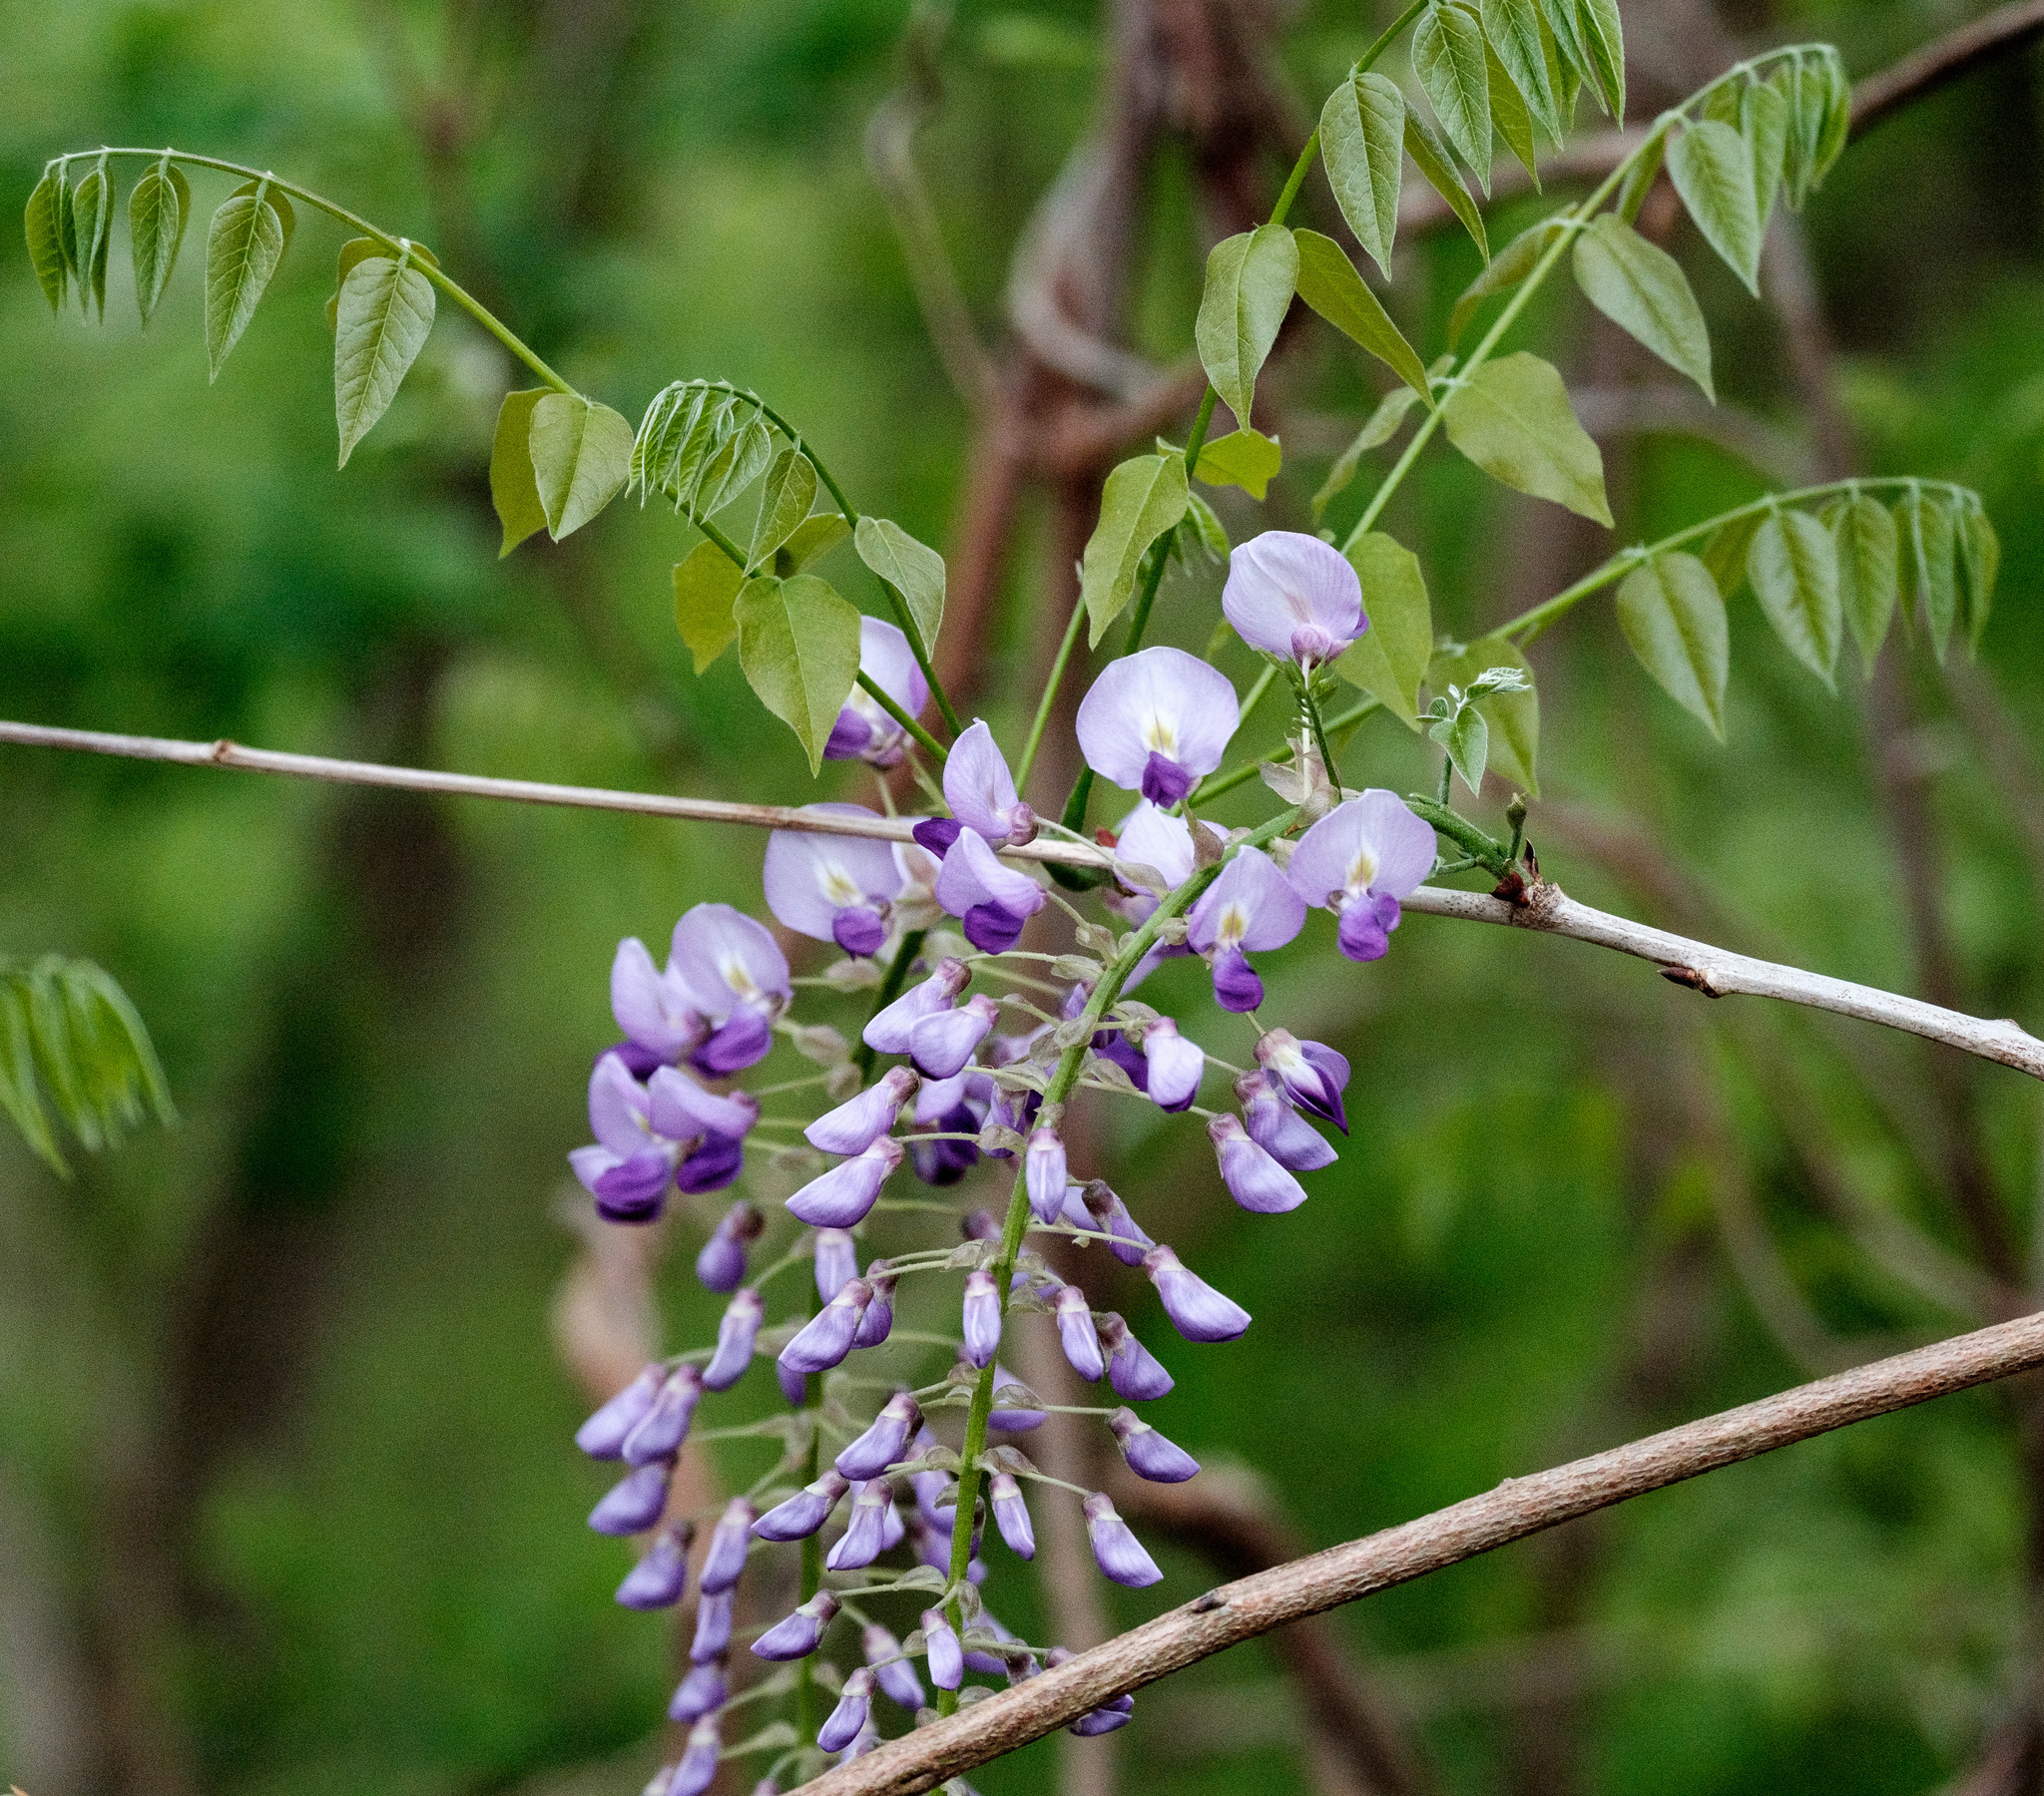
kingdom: Plantae
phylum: Tracheophyta
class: Magnoliopsida
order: Fabales
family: Fabaceae
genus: Wisteria
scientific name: Wisteria
